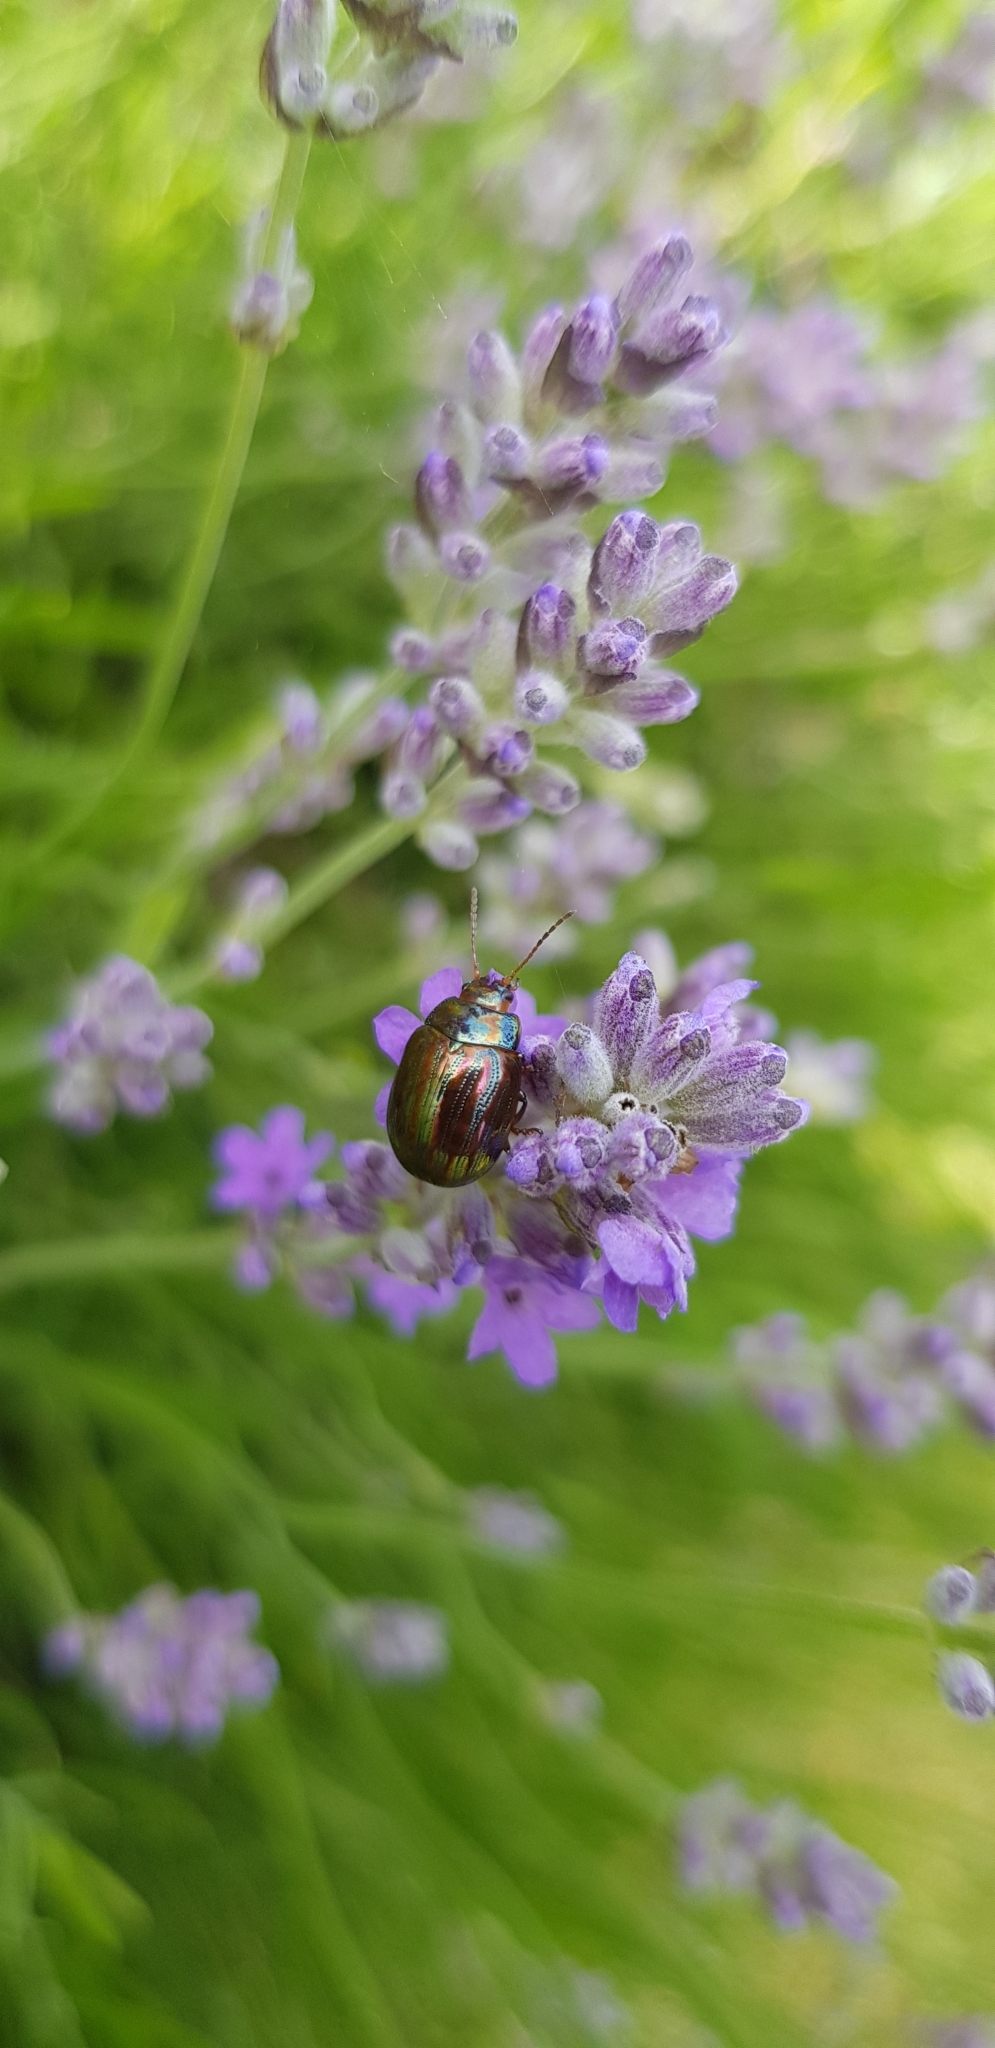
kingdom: Animalia
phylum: Arthropoda
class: Insecta
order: Coleoptera
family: Chrysomelidae
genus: Chrysolina
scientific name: Chrysolina americana
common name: Rosemary beetle
